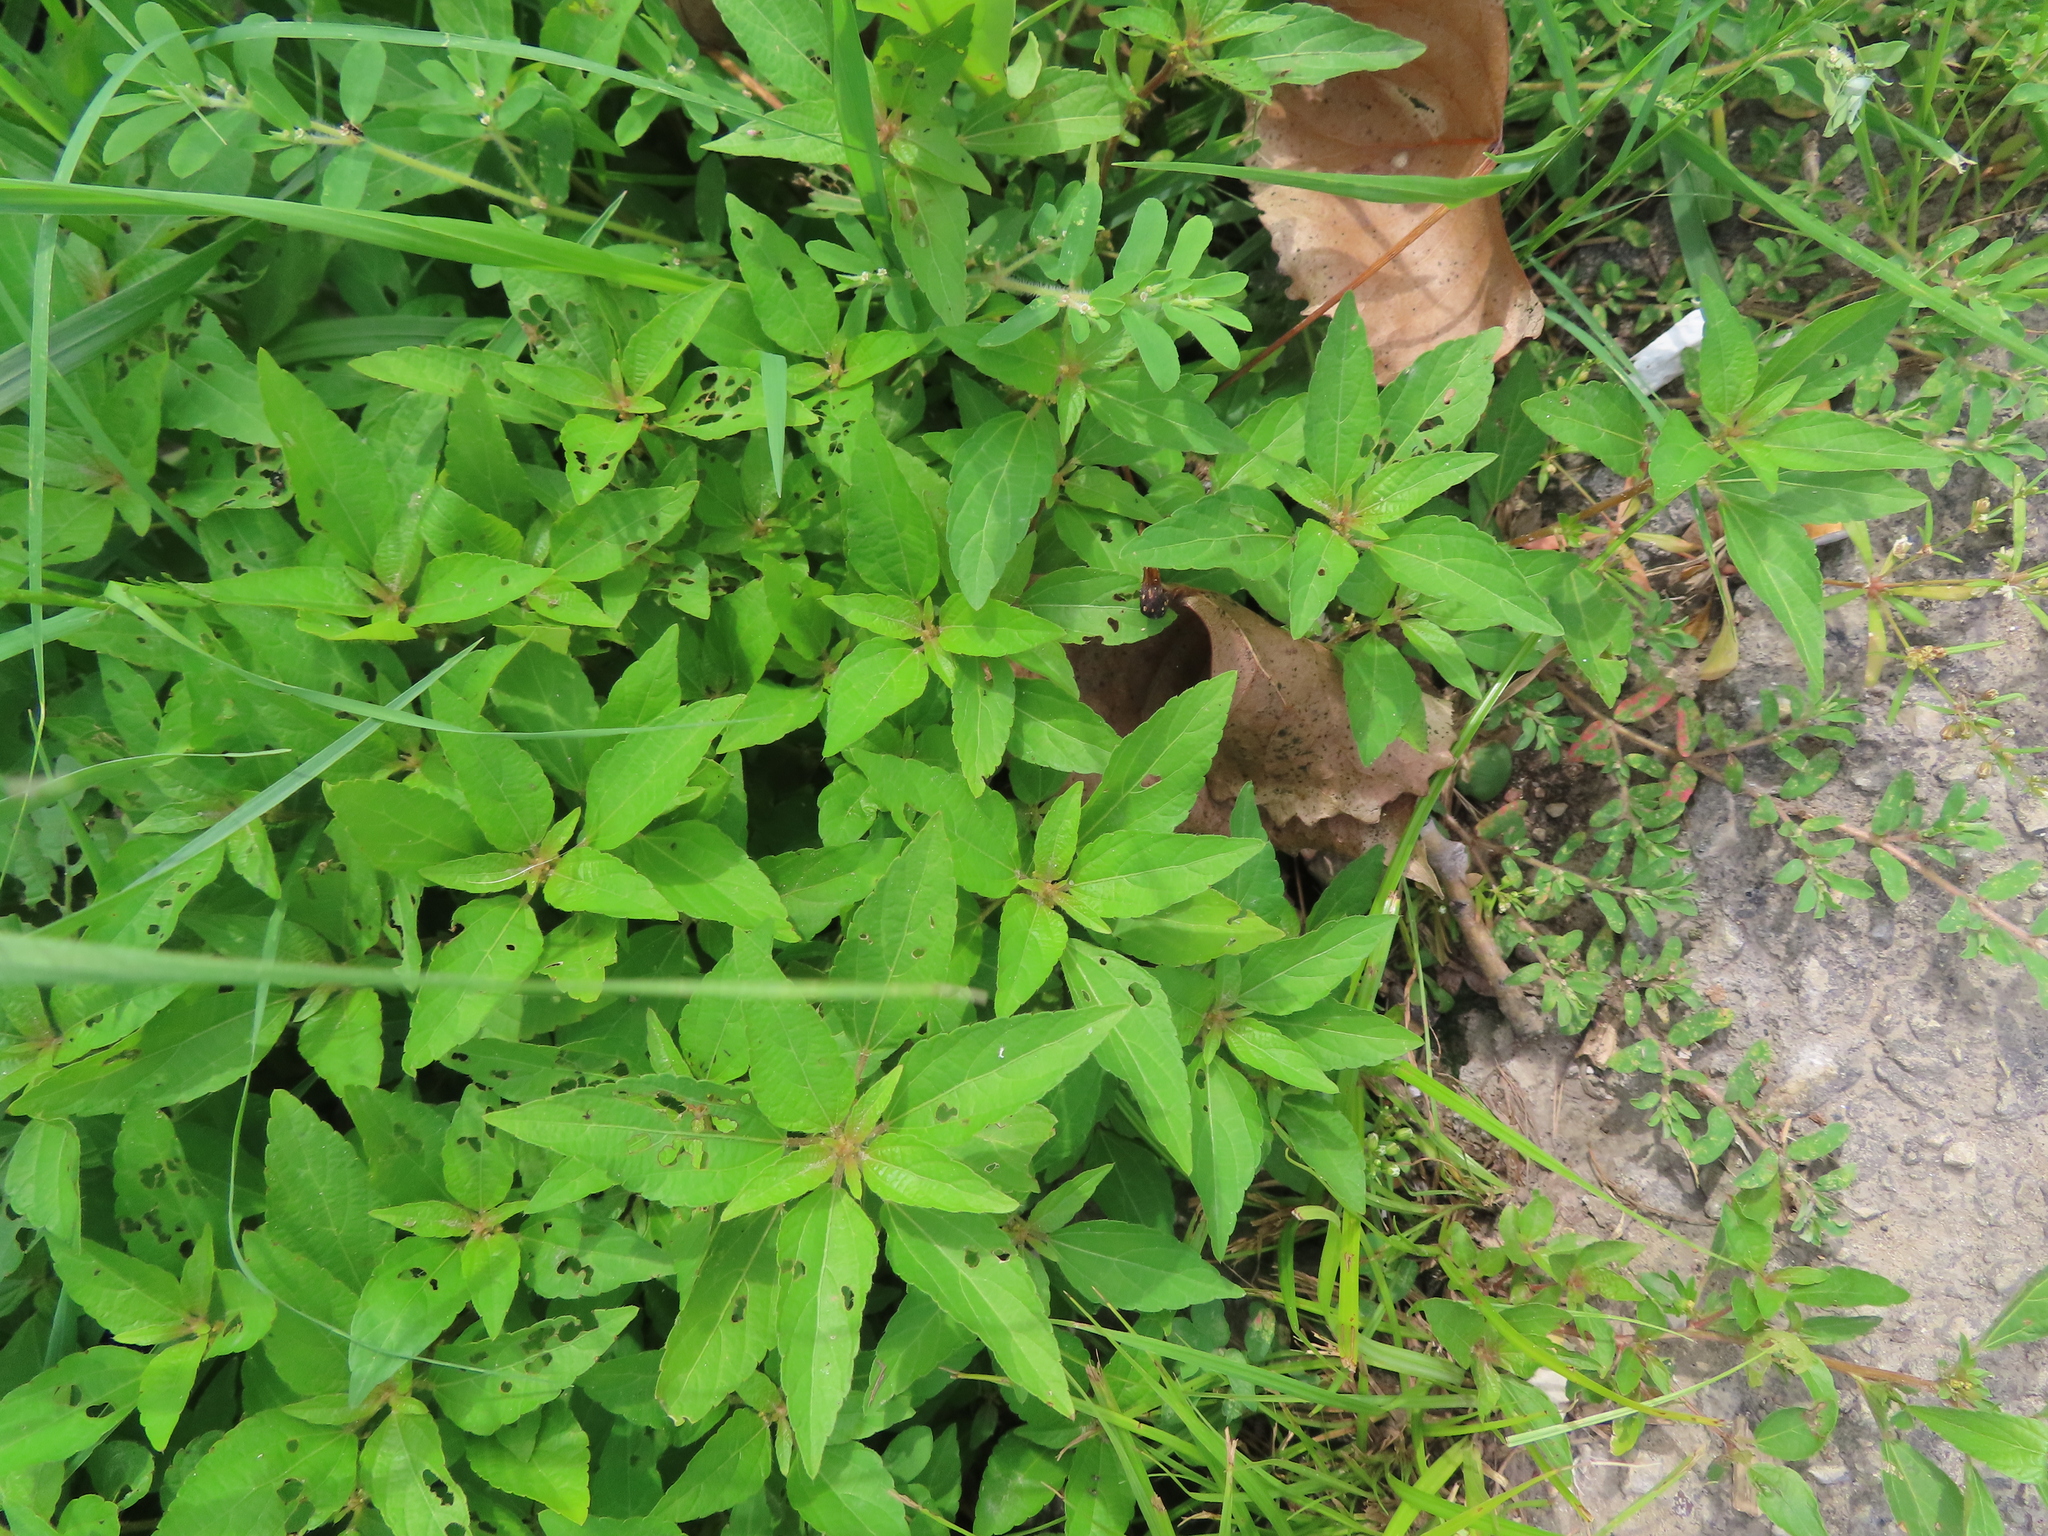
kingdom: Plantae
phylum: Tracheophyta
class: Magnoliopsida
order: Malpighiales
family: Euphorbiaceae
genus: Acalypha
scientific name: Acalypha rhomboidea
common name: Rhombic copperleaf
